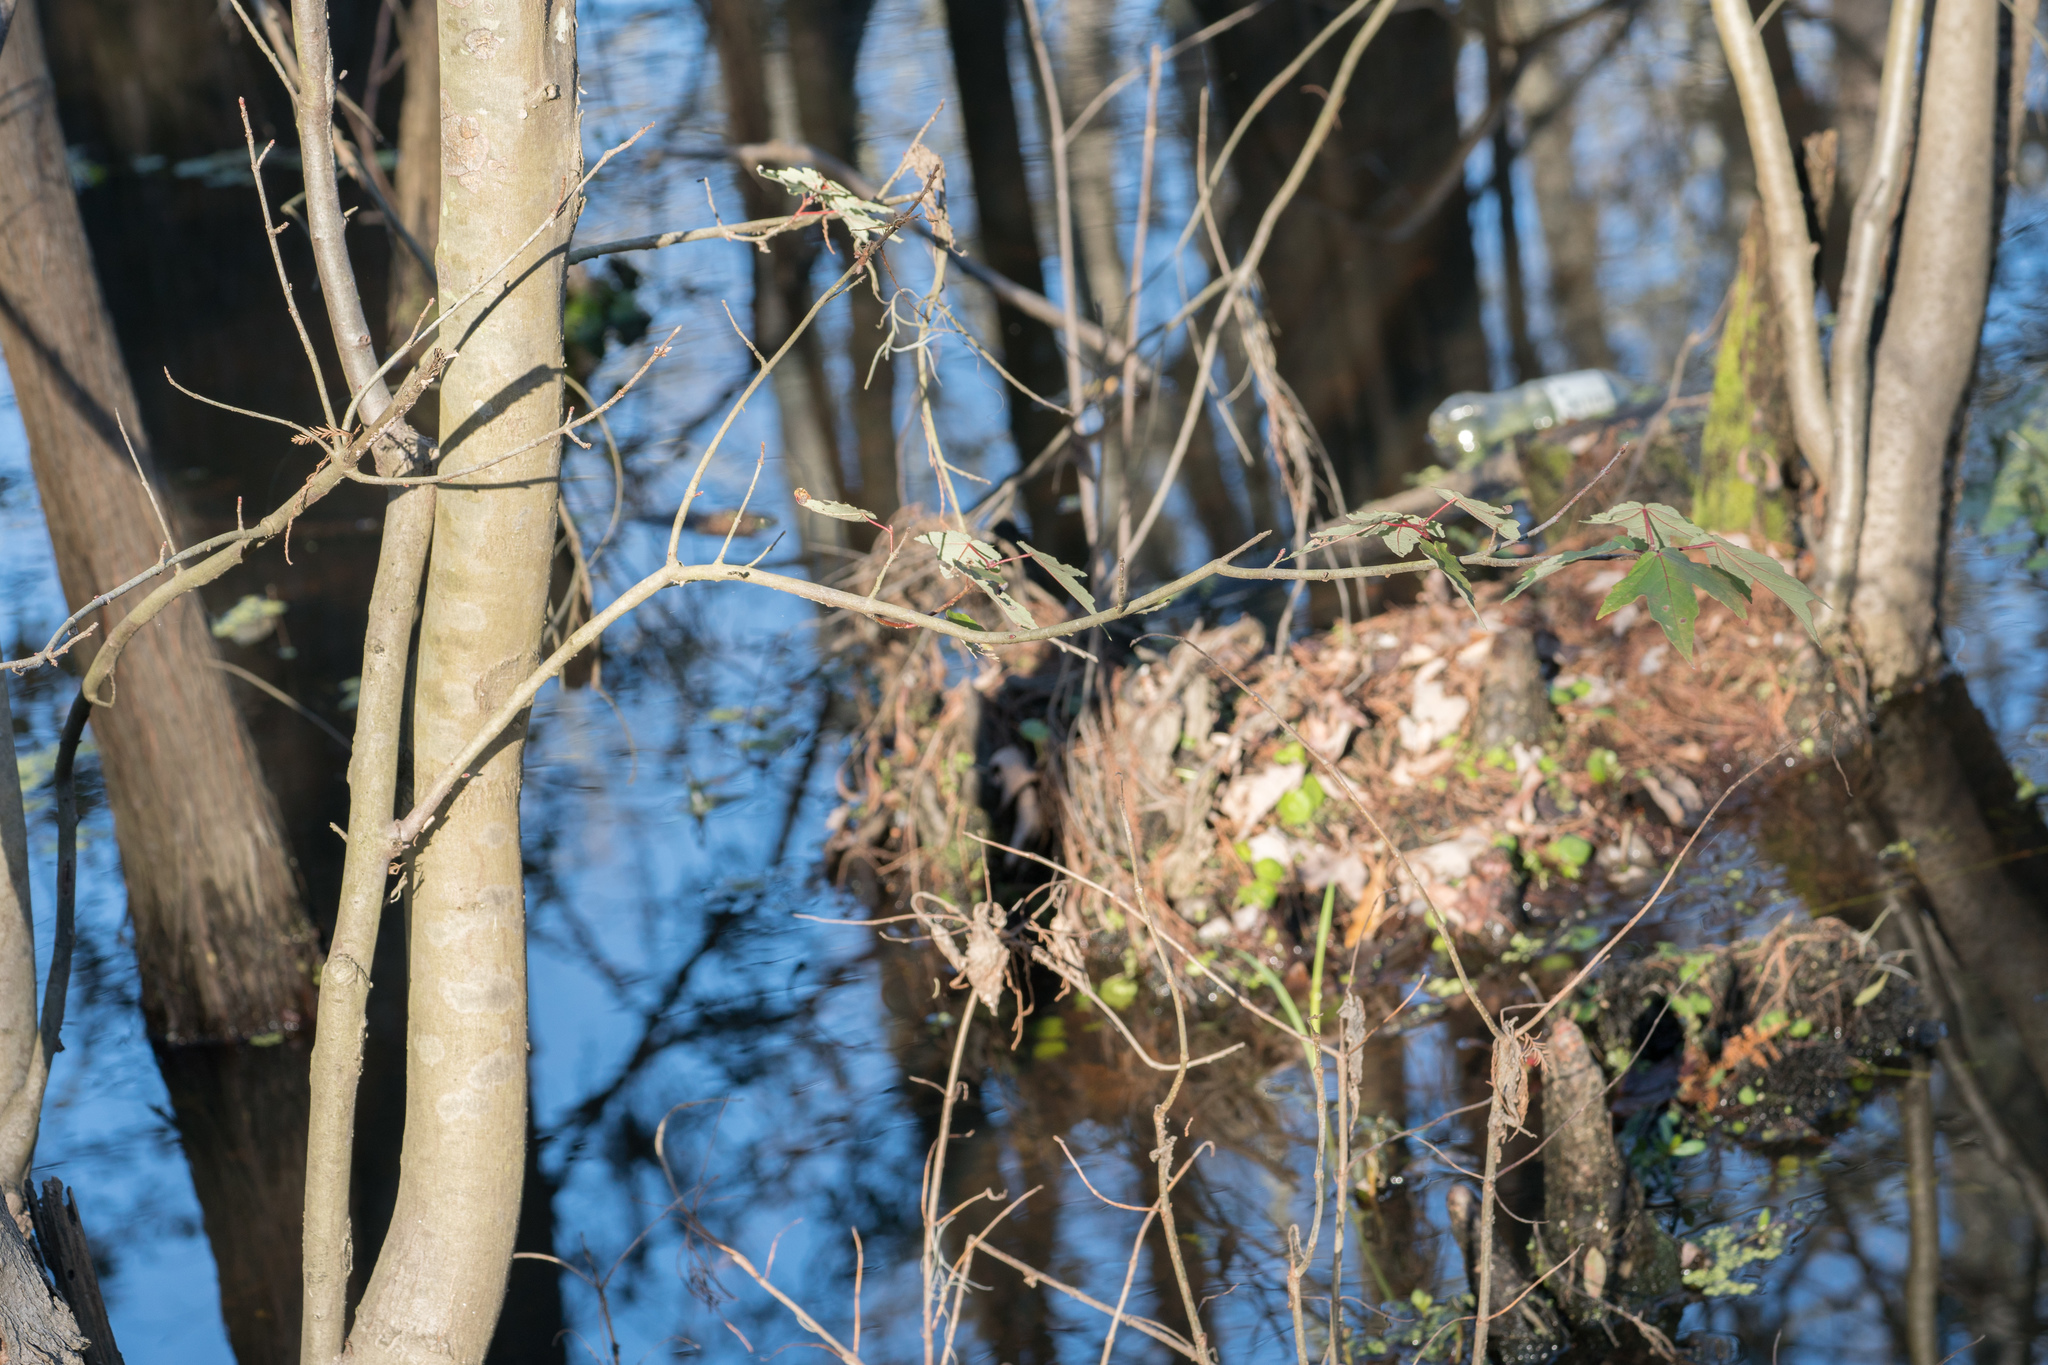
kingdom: Plantae
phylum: Tracheophyta
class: Magnoliopsida
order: Sapindales
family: Sapindaceae
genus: Acer
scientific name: Acer rubrum
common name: Red maple
